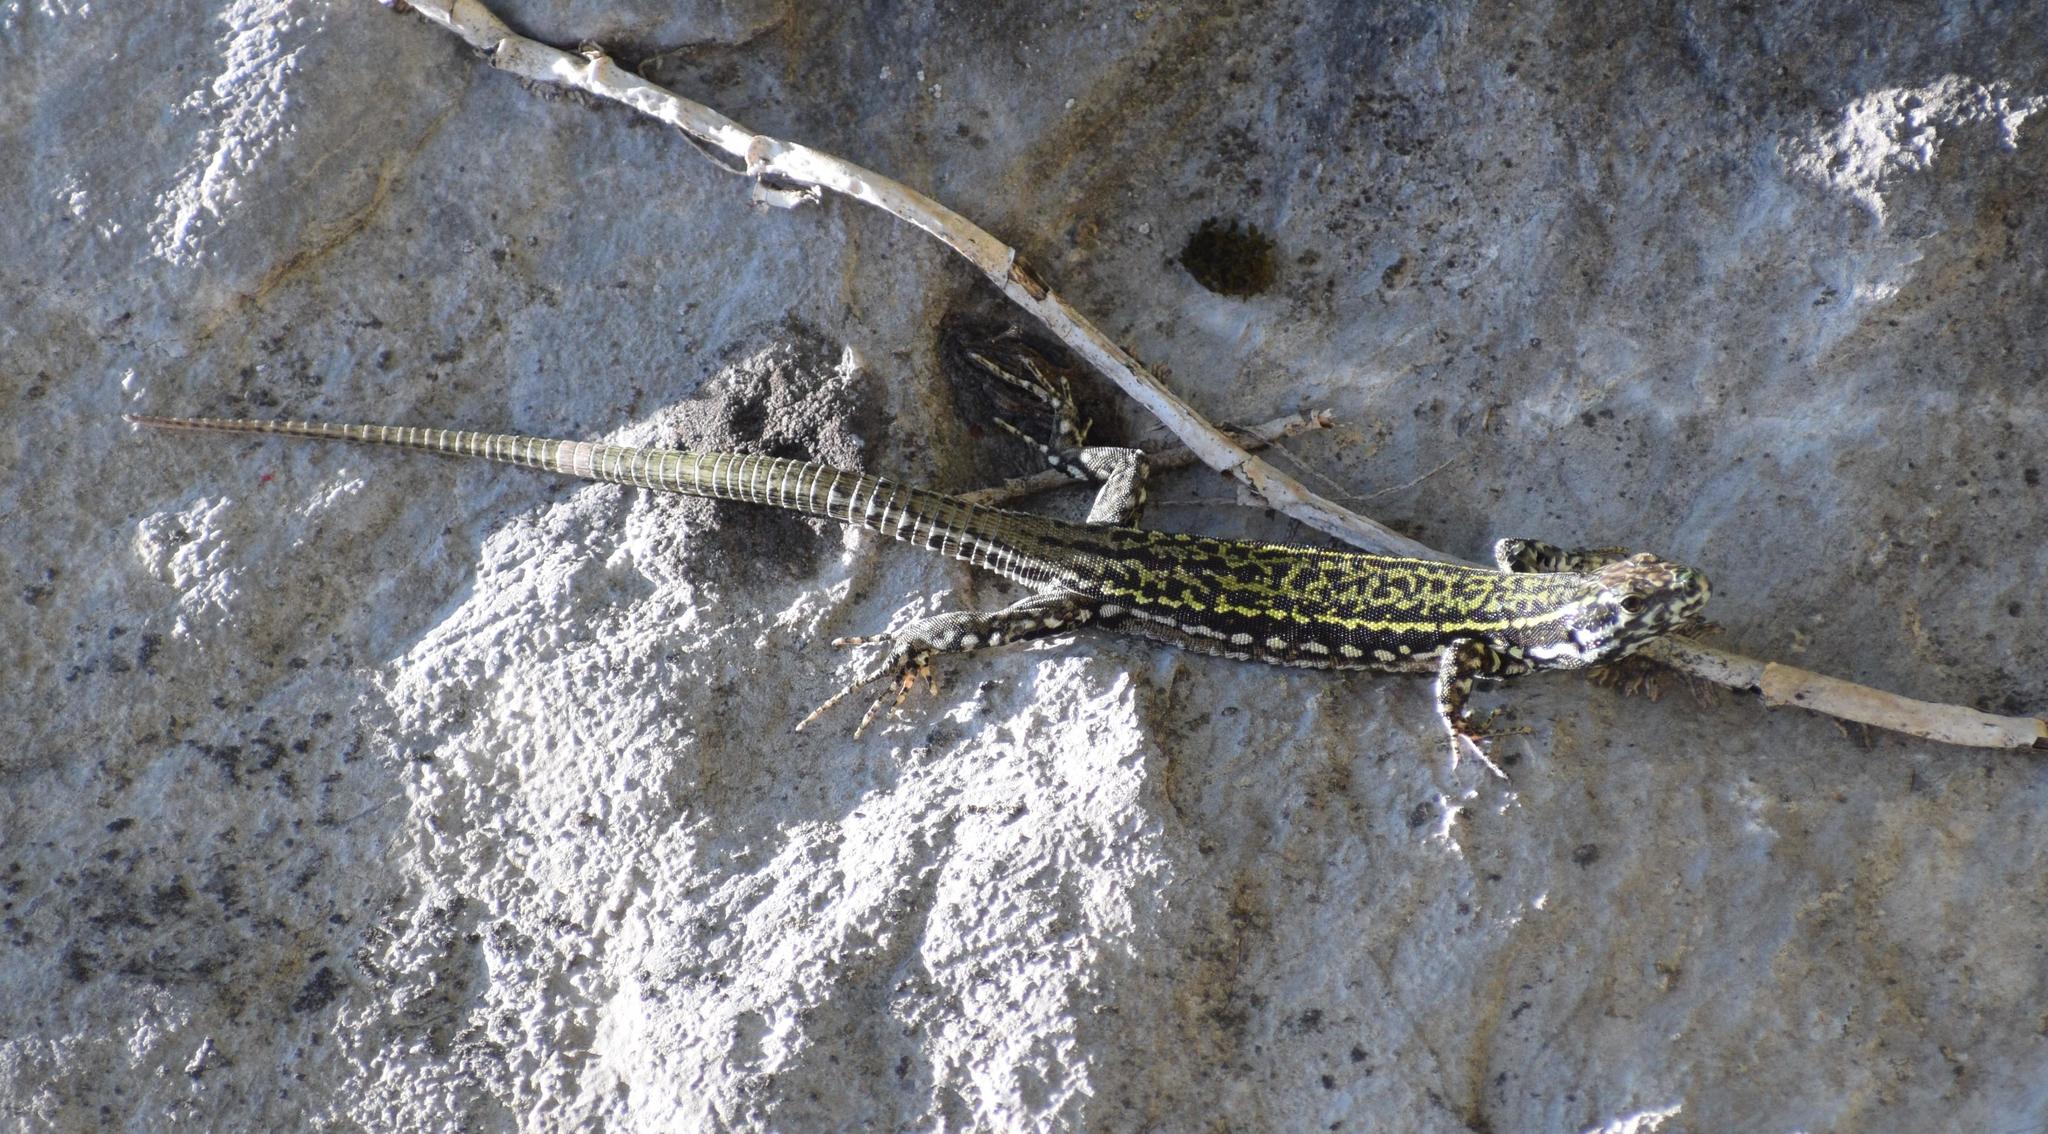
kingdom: Animalia
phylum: Chordata
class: Squamata
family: Lacertidae
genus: Podarcis
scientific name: Podarcis muralis
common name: Common wall lizard
